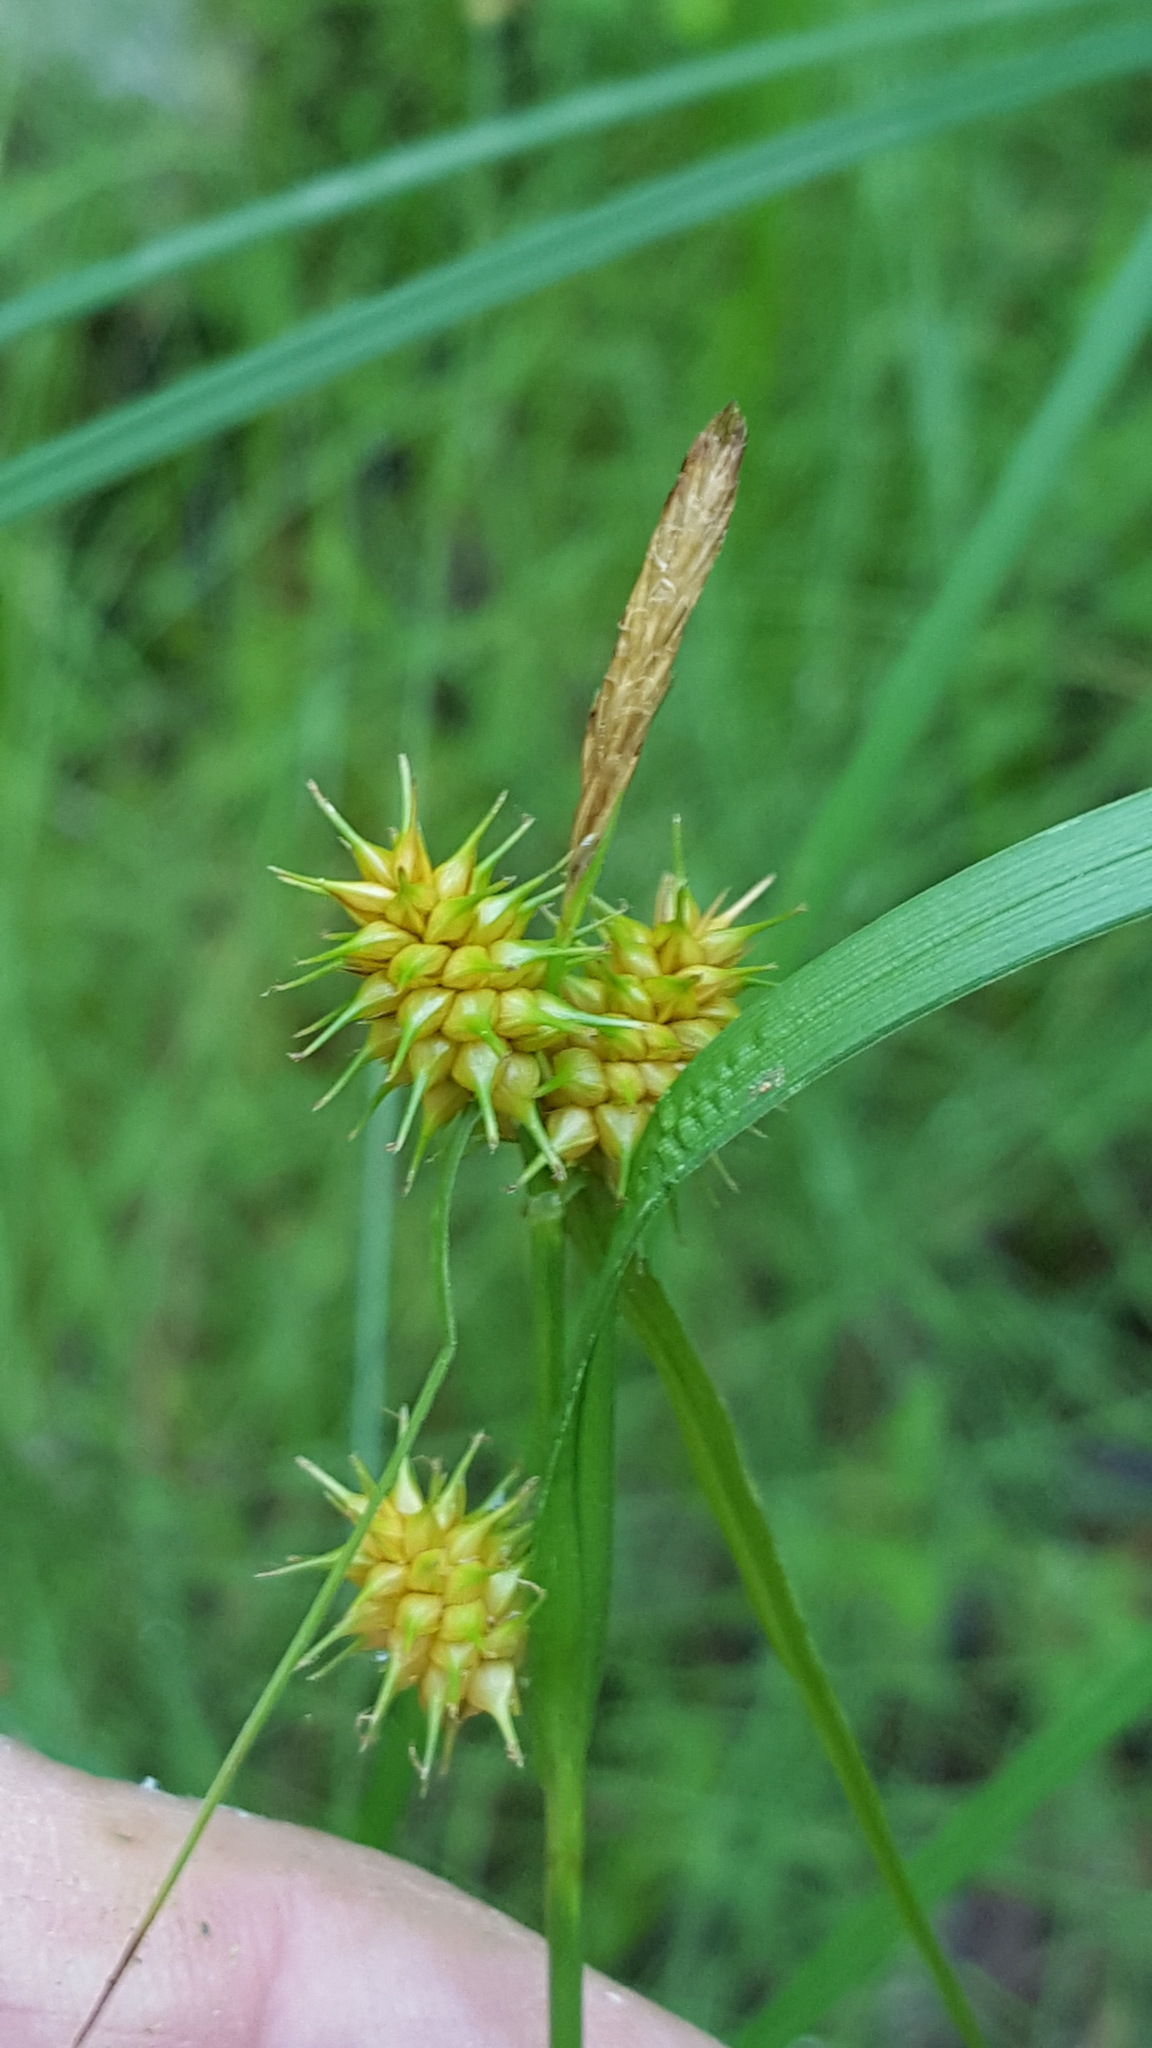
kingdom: Plantae
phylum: Tracheophyta
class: Liliopsida
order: Poales
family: Cyperaceae
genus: Carex
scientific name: Carex flava
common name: Large yellow-sedge
